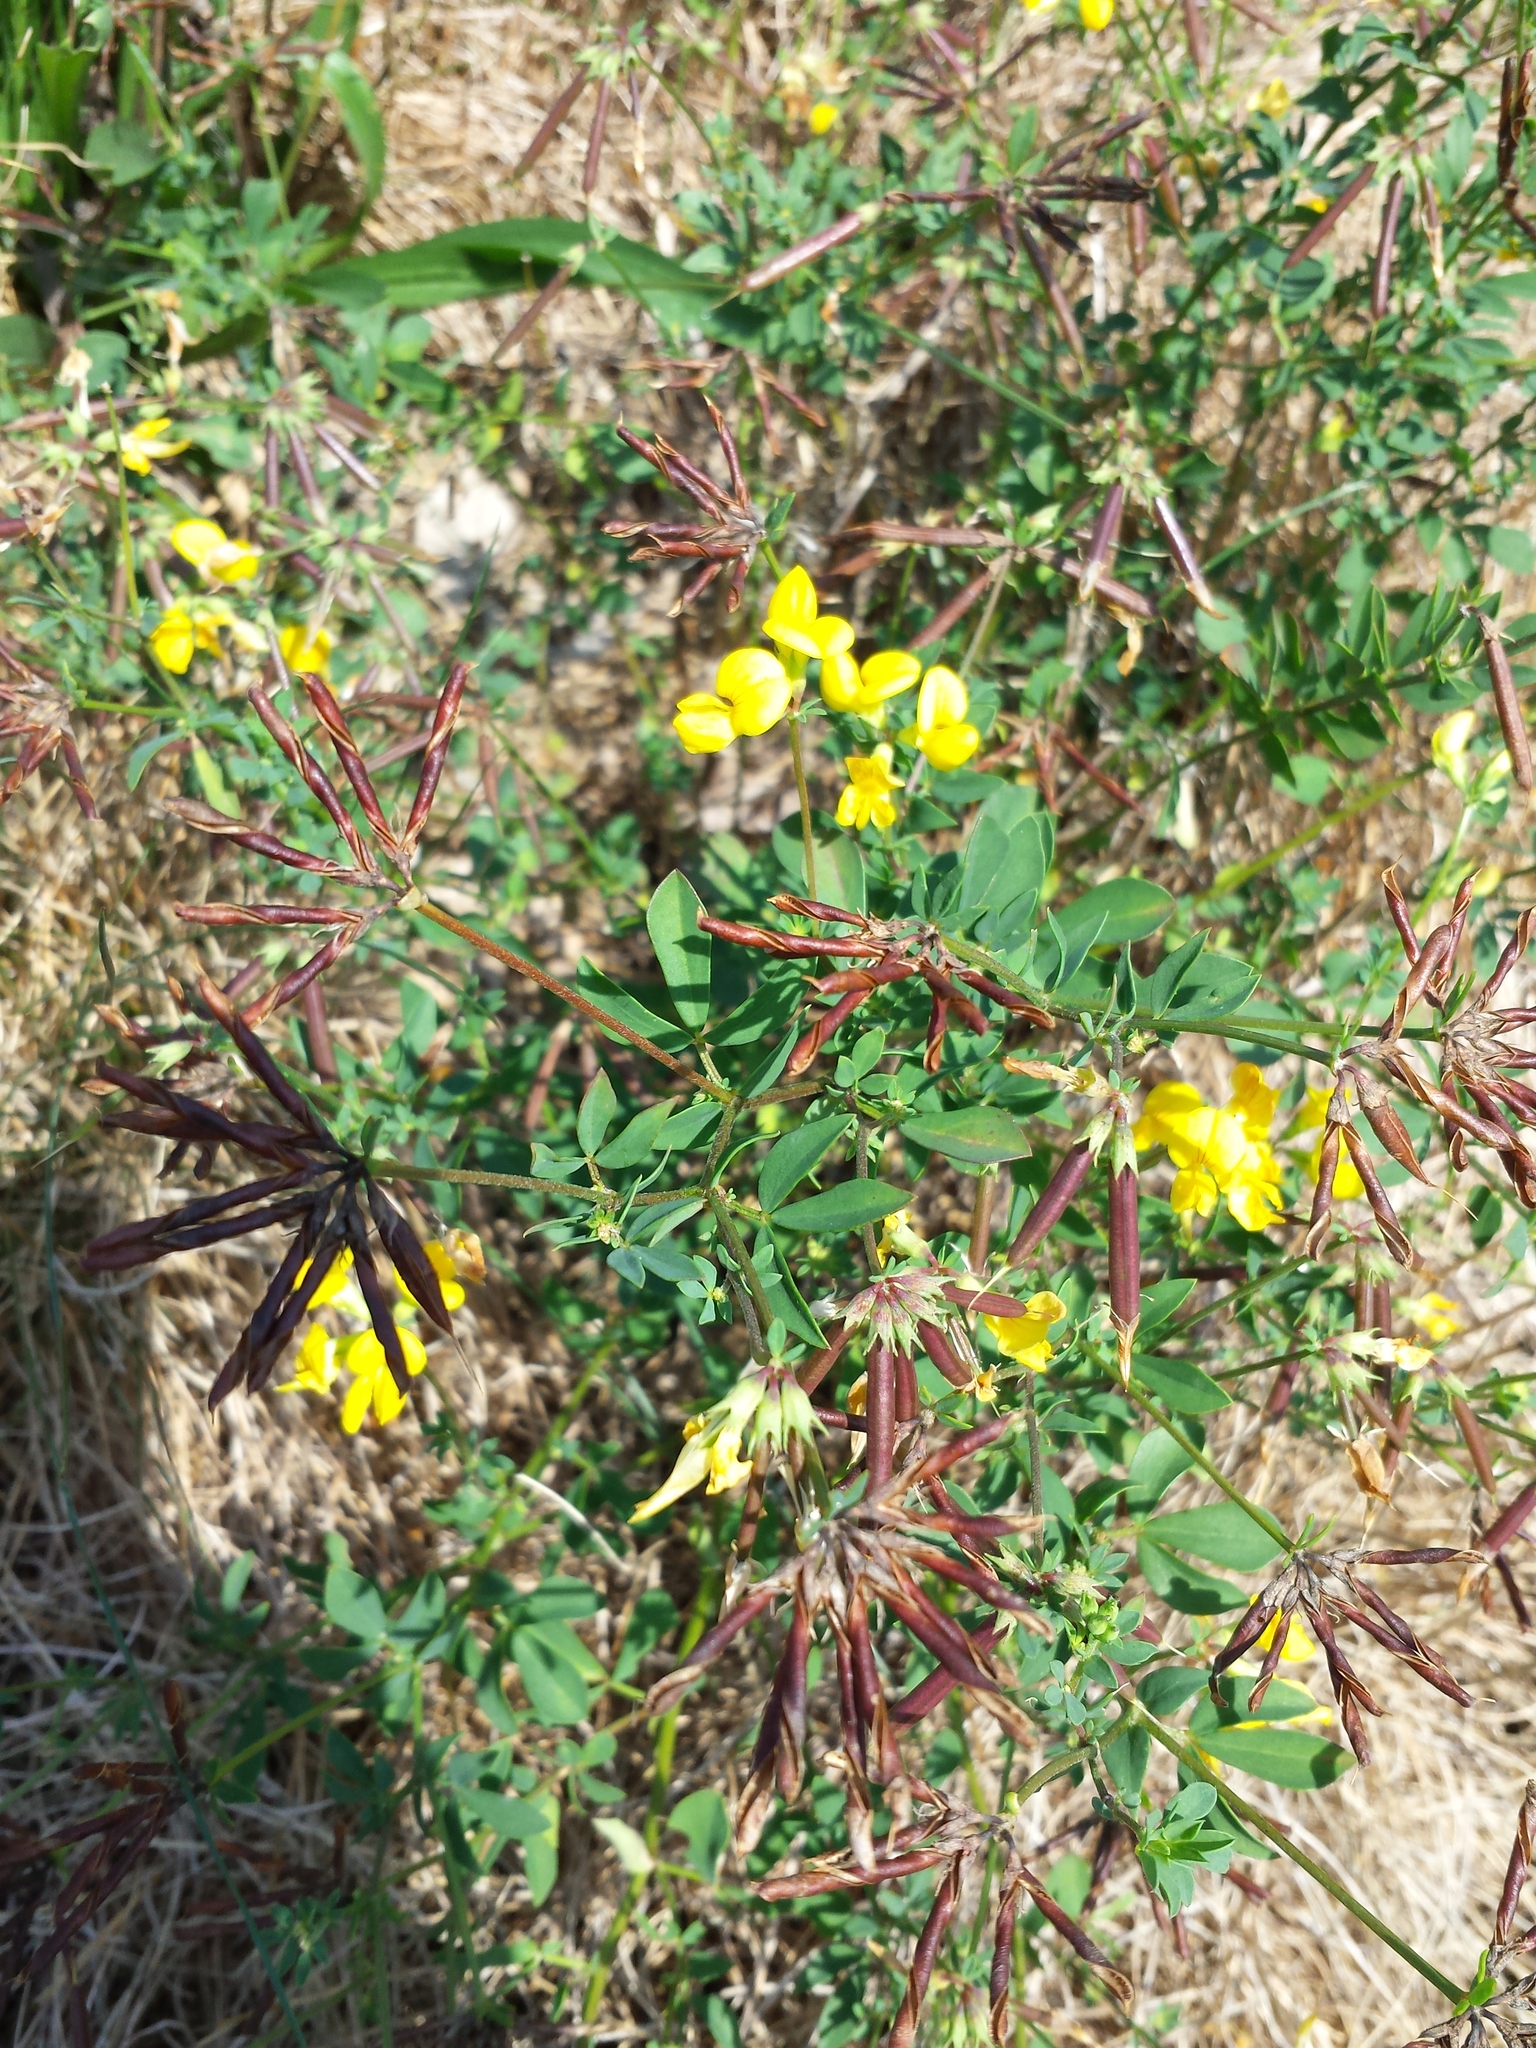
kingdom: Plantae
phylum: Tracheophyta
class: Magnoliopsida
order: Fabales
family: Fabaceae
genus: Lotus
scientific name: Lotus corniculatus
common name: Common bird's-foot-trefoil
